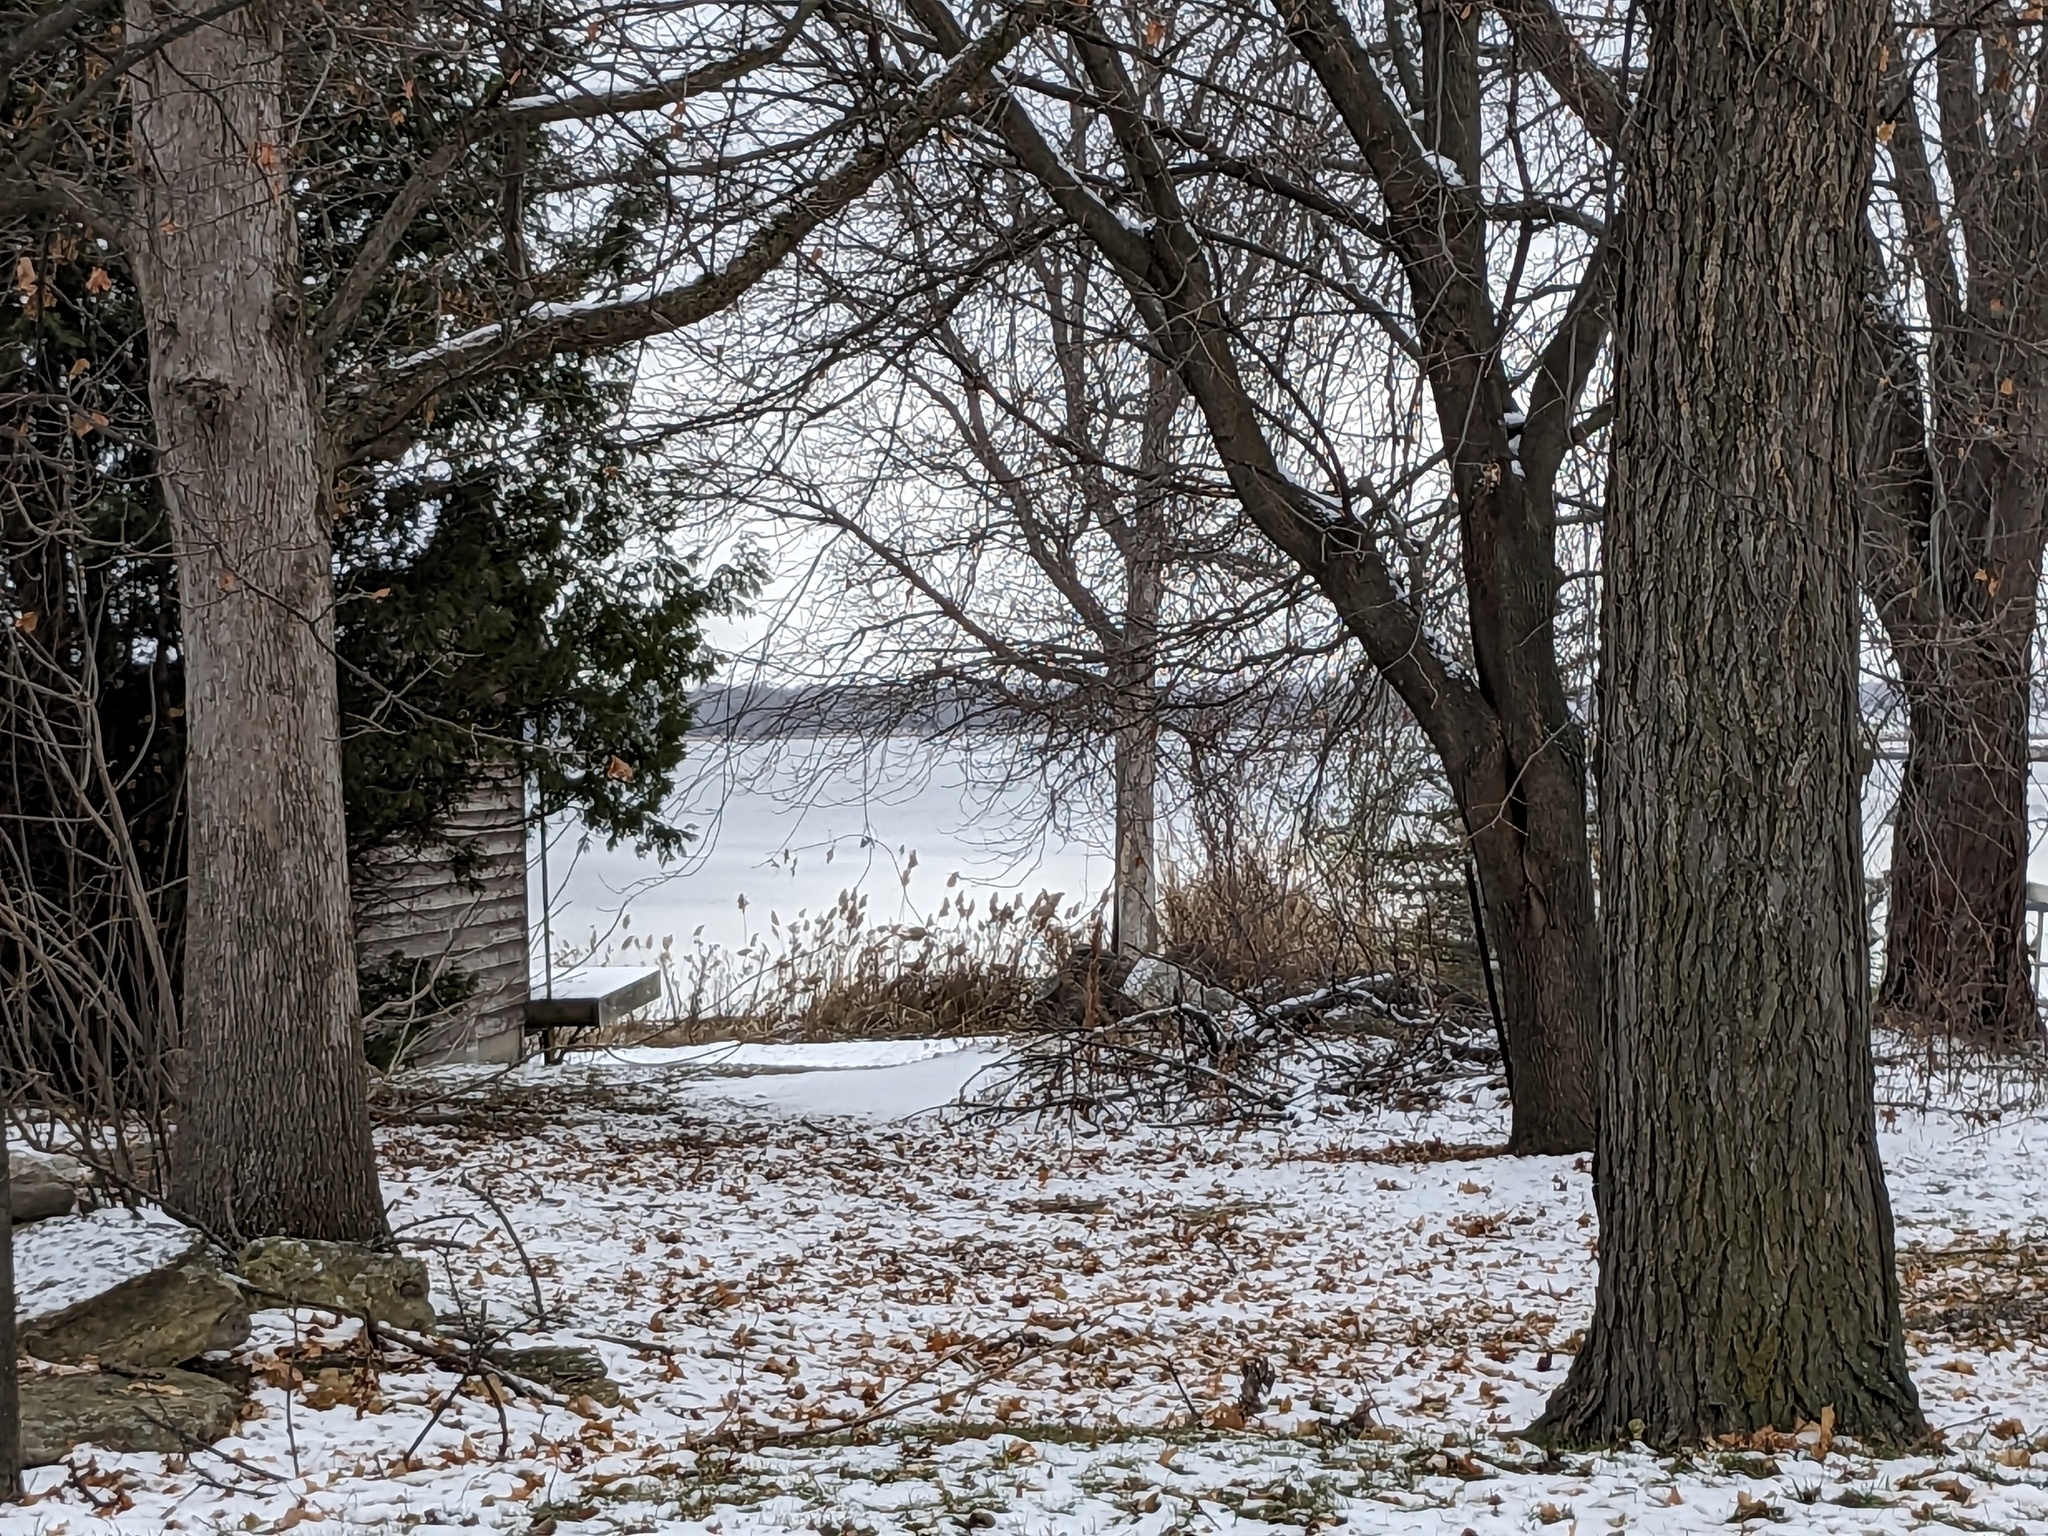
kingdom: Plantae
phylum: Tracheophyta
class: Liliopsida
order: Poales
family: Poaceae
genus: Phragmites
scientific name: Phragmites australis
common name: Common reed
